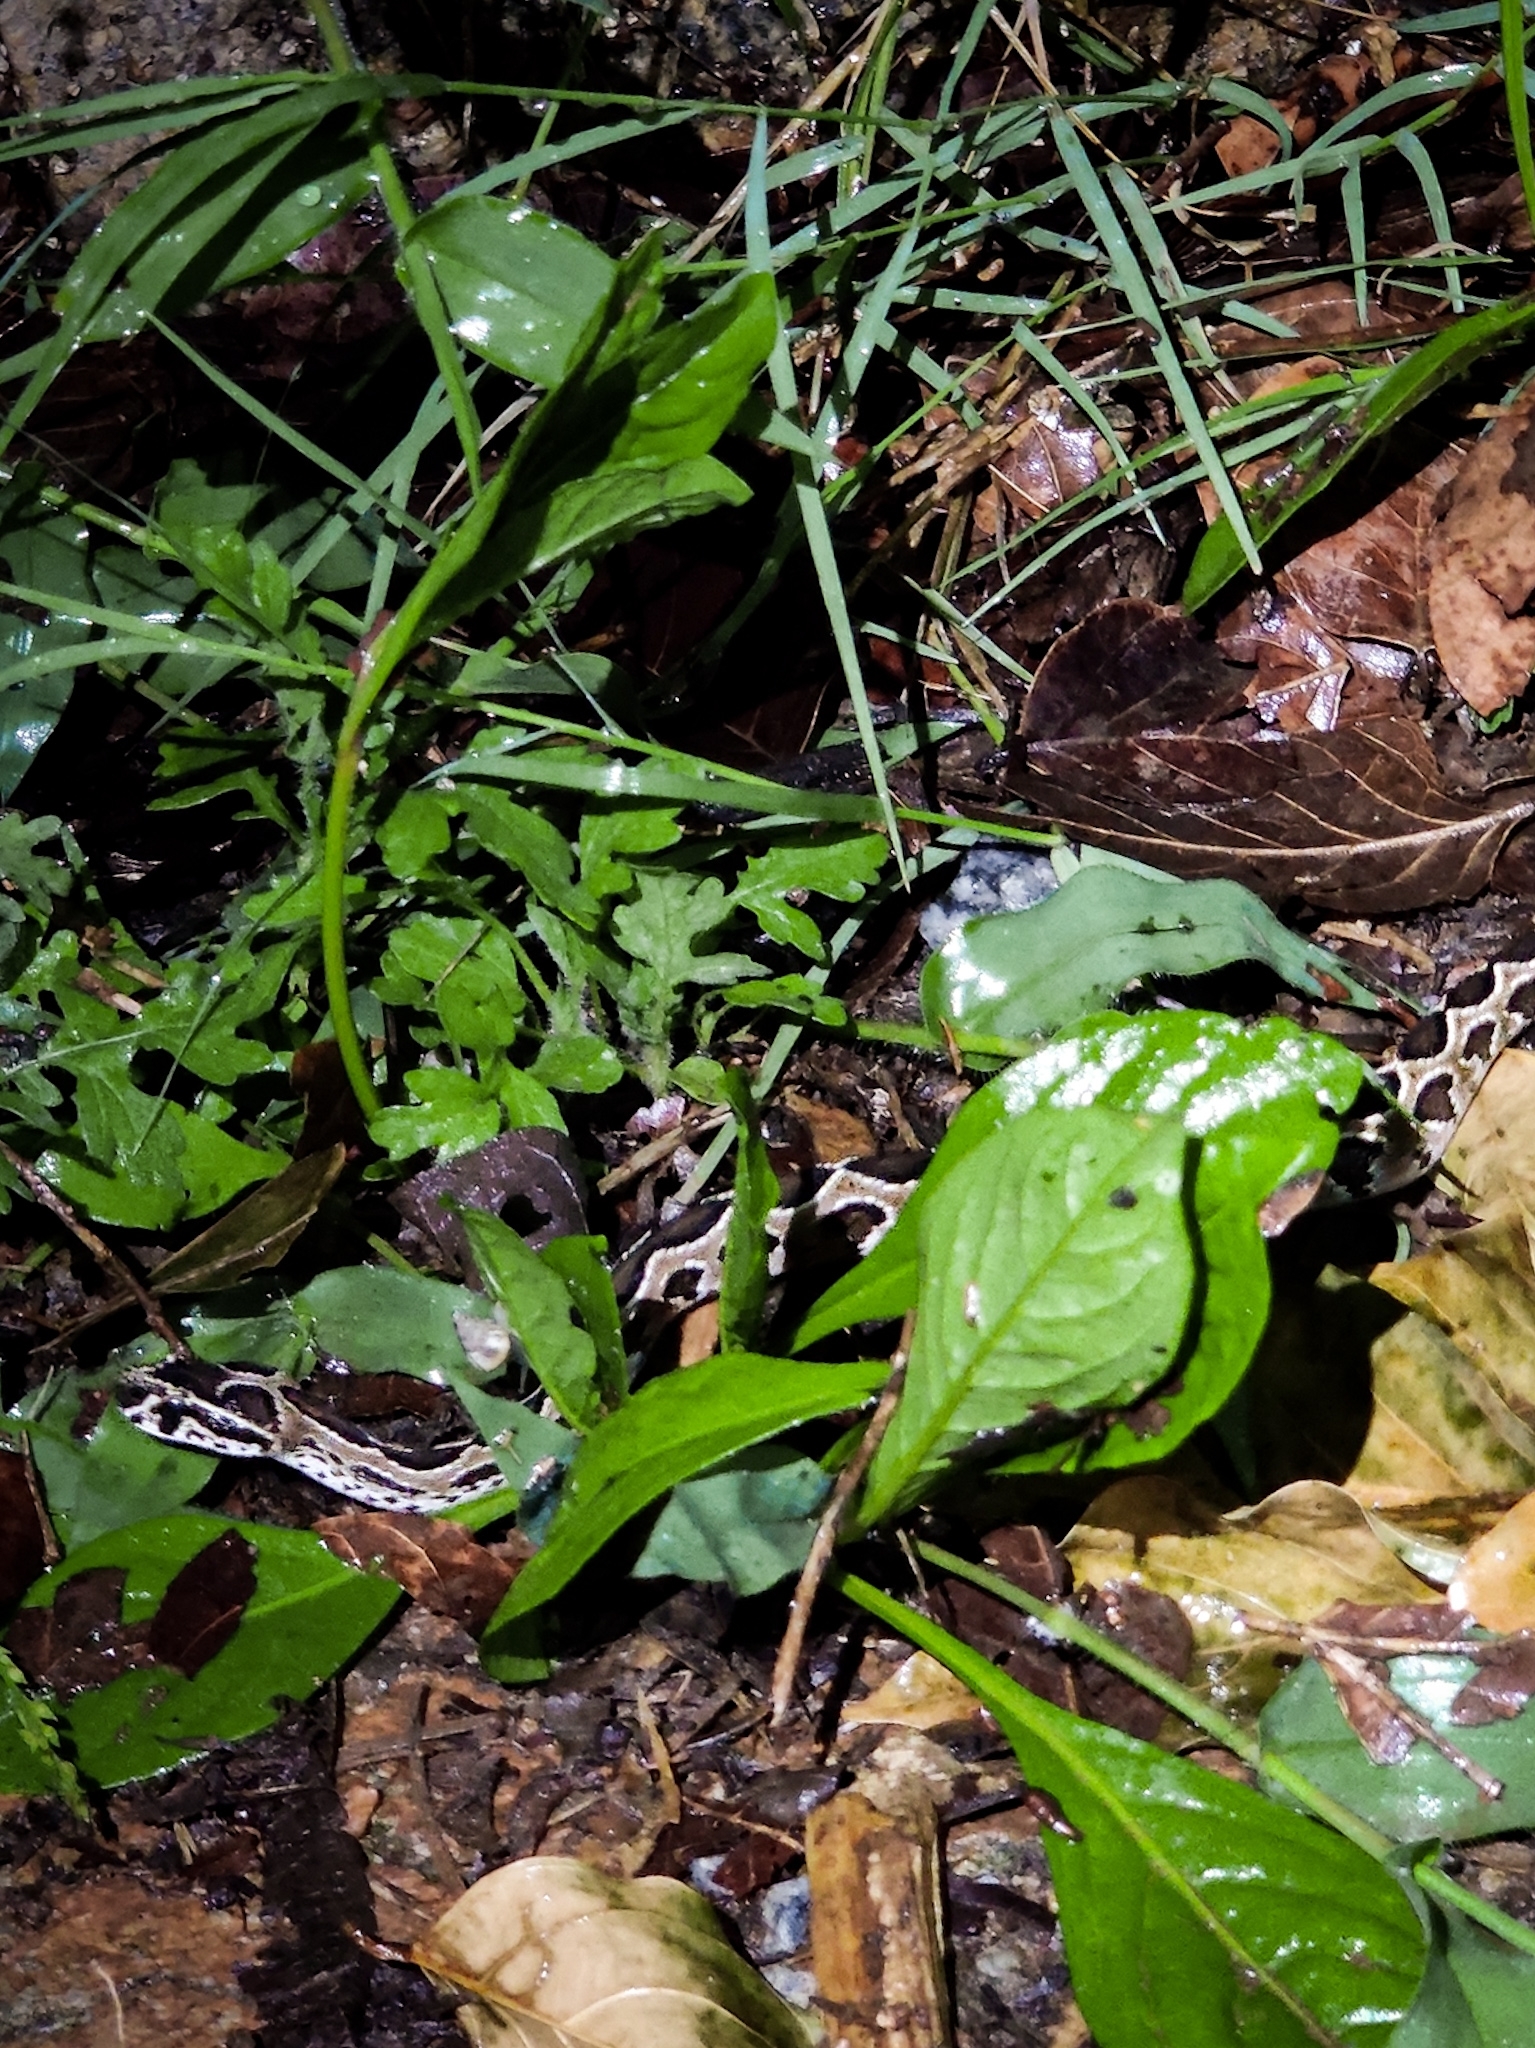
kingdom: Animalia
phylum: Chordata
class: Squamata
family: Viperidae
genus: Daboia
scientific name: Daboia russelii
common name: Western russel’s viper
